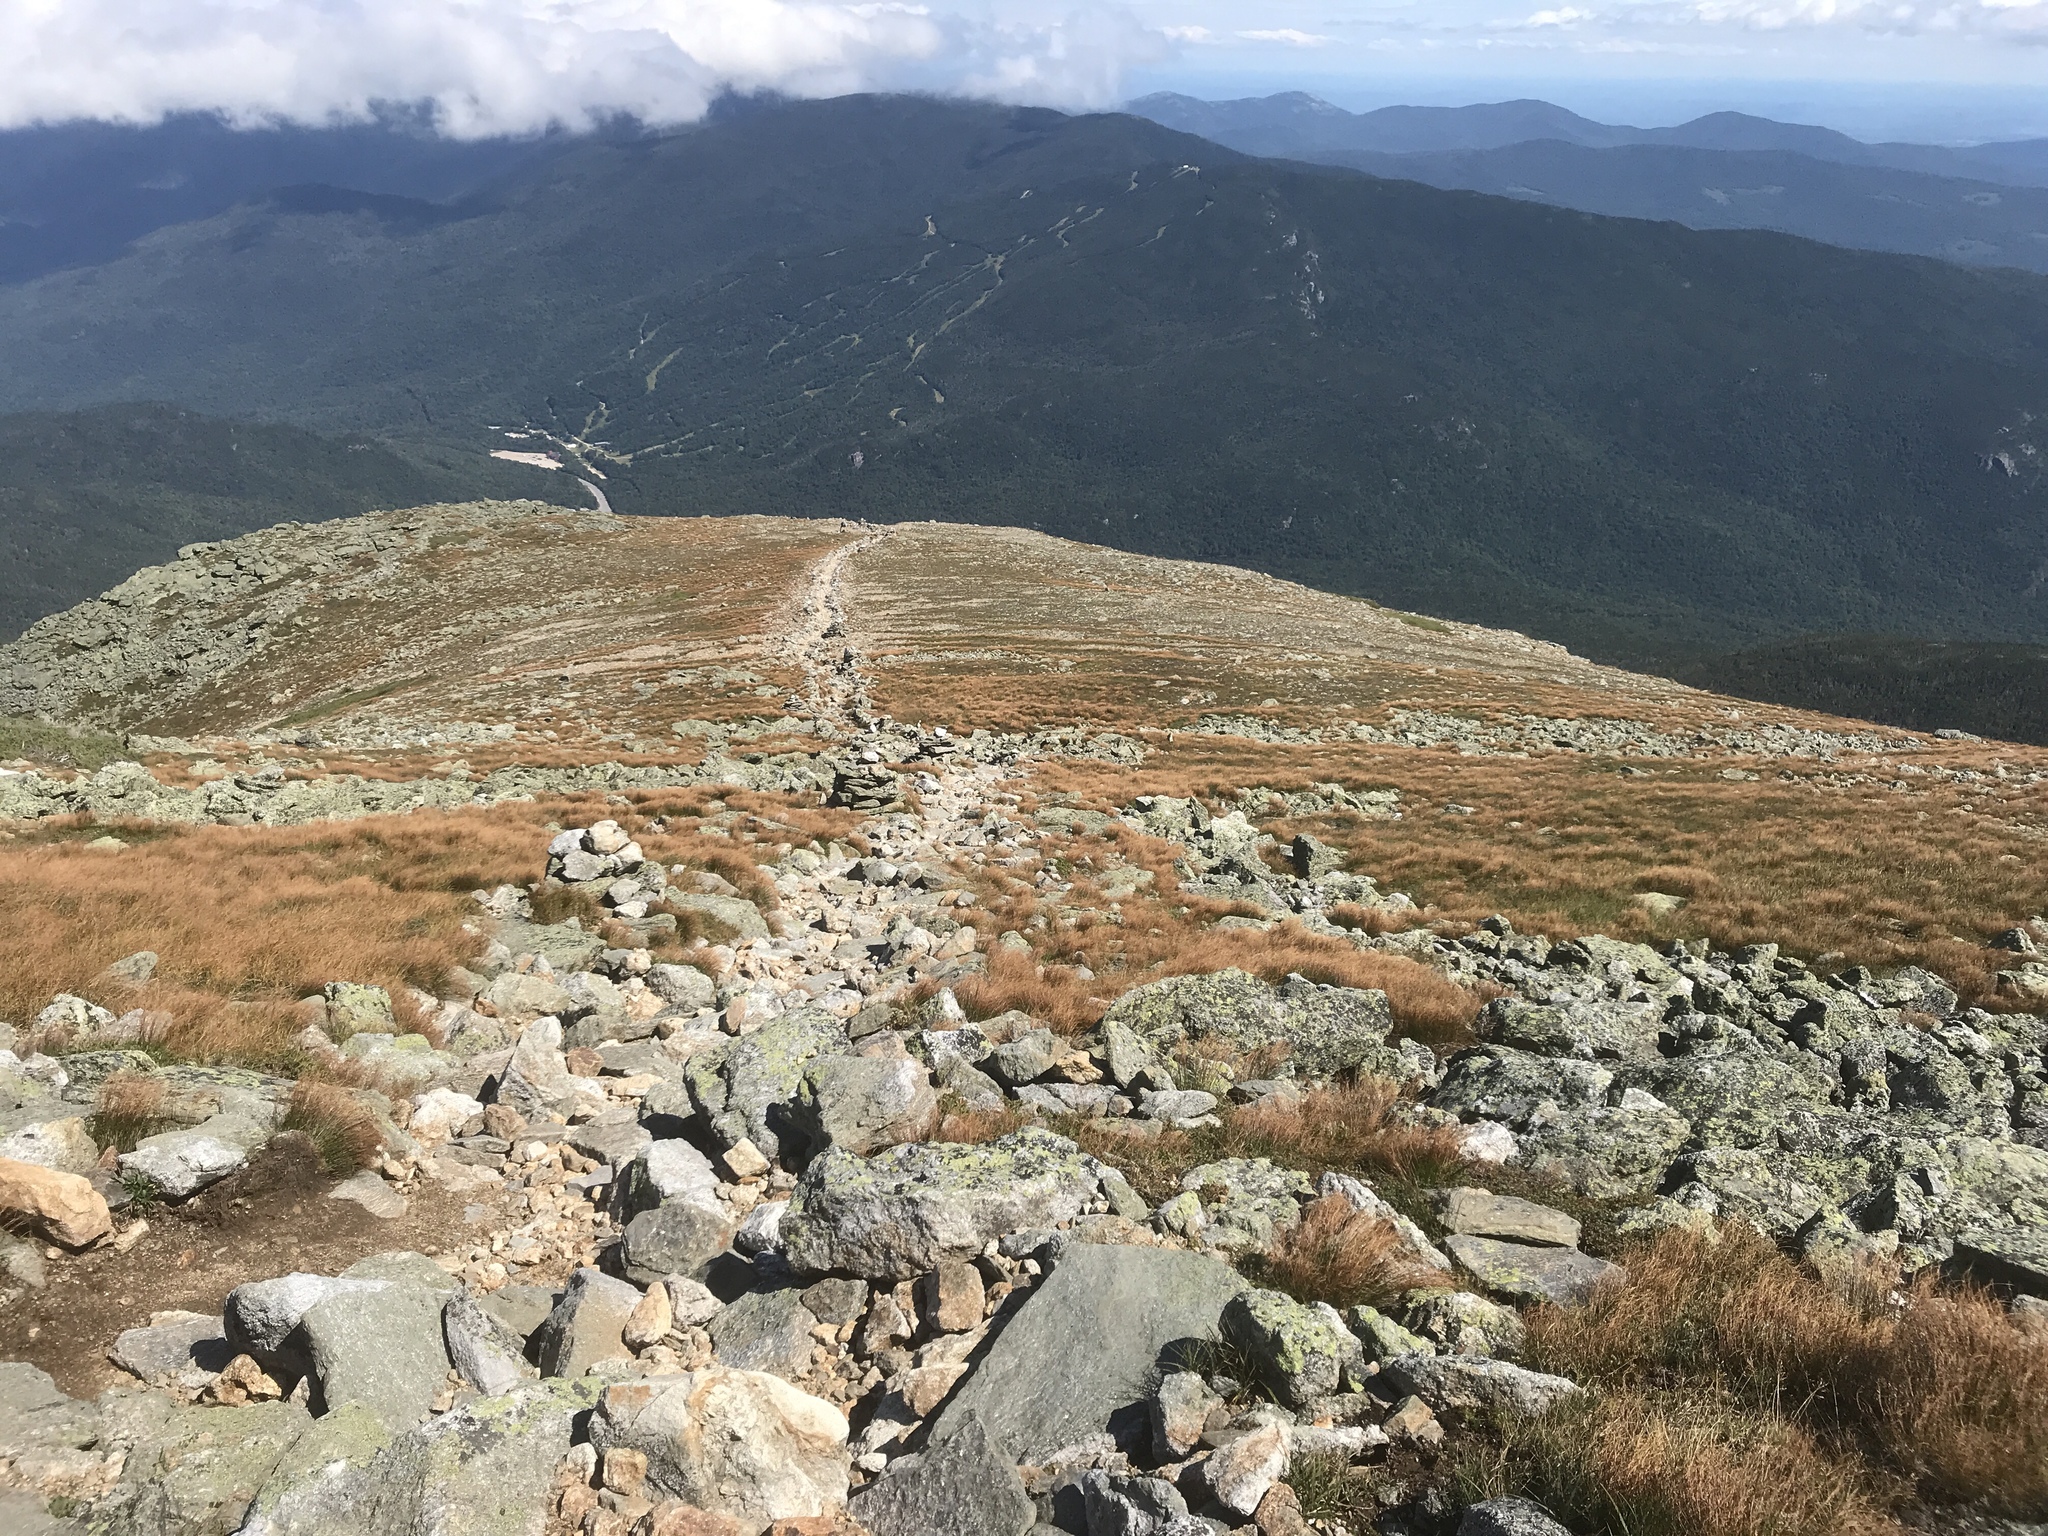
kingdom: Plantae
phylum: Tracheophyta
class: Liliopsida
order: Poales
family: Juncaceae
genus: Oreojuncus
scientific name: Oreojuncus trifidus
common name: Highland rush
